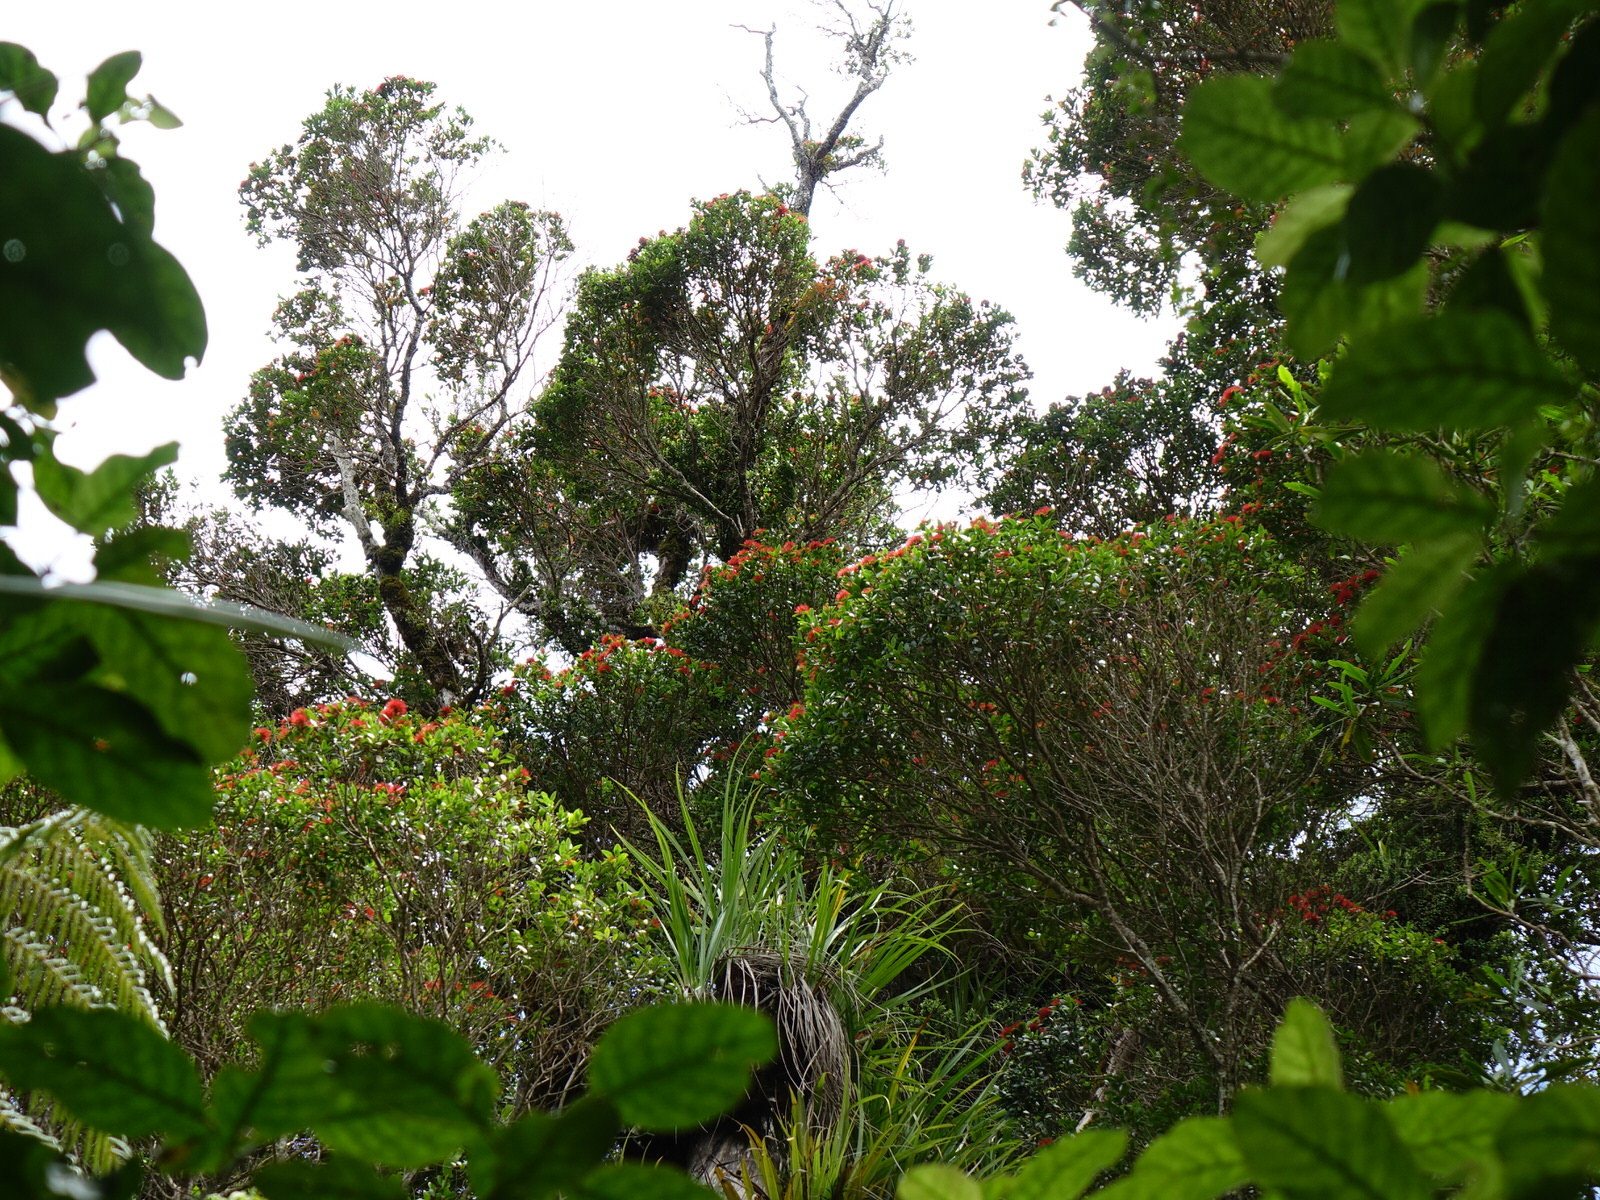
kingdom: Plantae
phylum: Tracheophyta
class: Magnoliopsida
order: Myrtales
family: Myrtaceae
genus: Metrosideros
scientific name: Metrosideros robusta
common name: Northern rata
